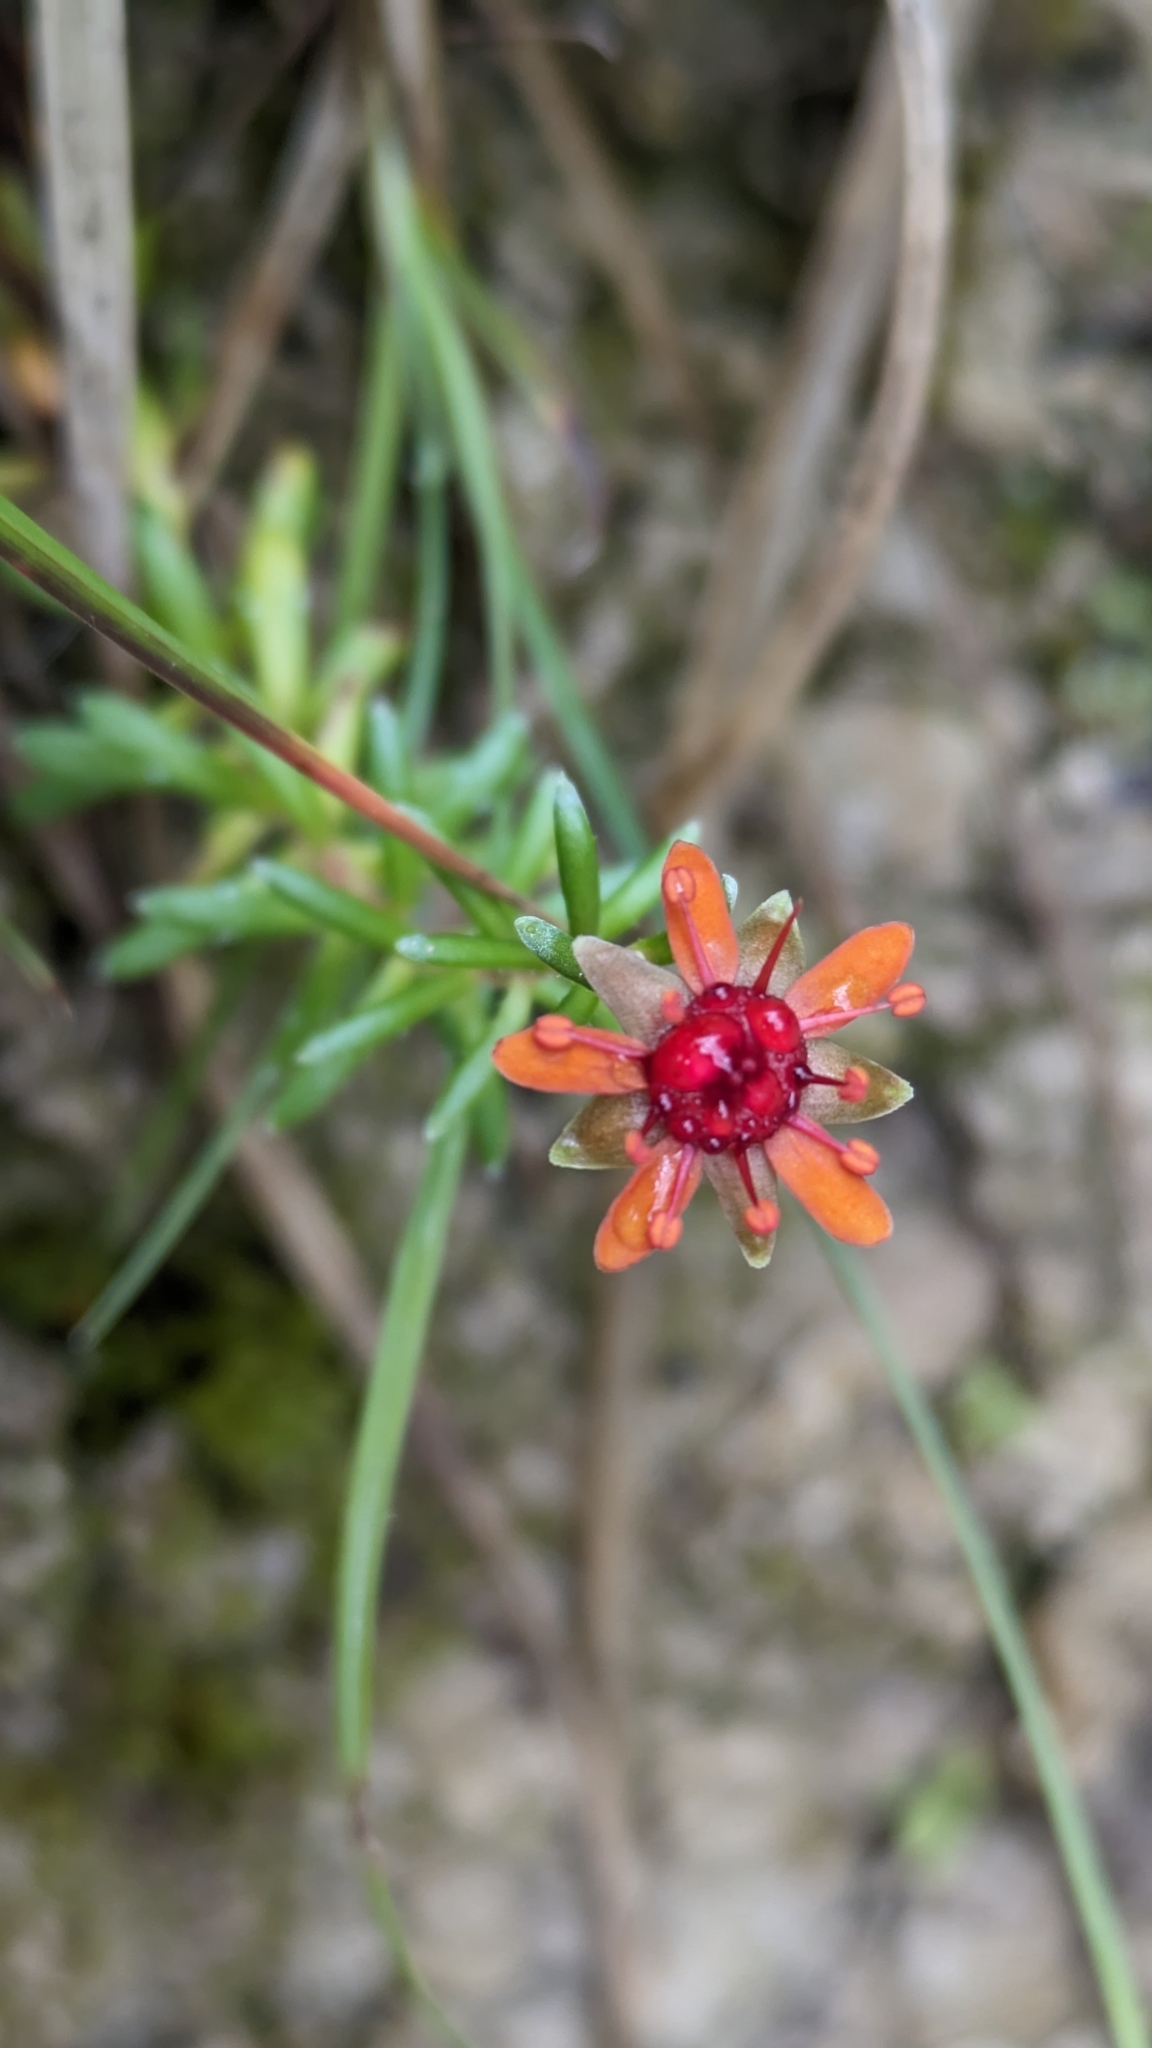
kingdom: Plantae
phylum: Tracheophyta
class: Magnoliopsida
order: Saxifragales
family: Saxifragaceae
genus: Saxifraga
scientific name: Saxifraga aizoides
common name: Yellow mountain saxifrage
